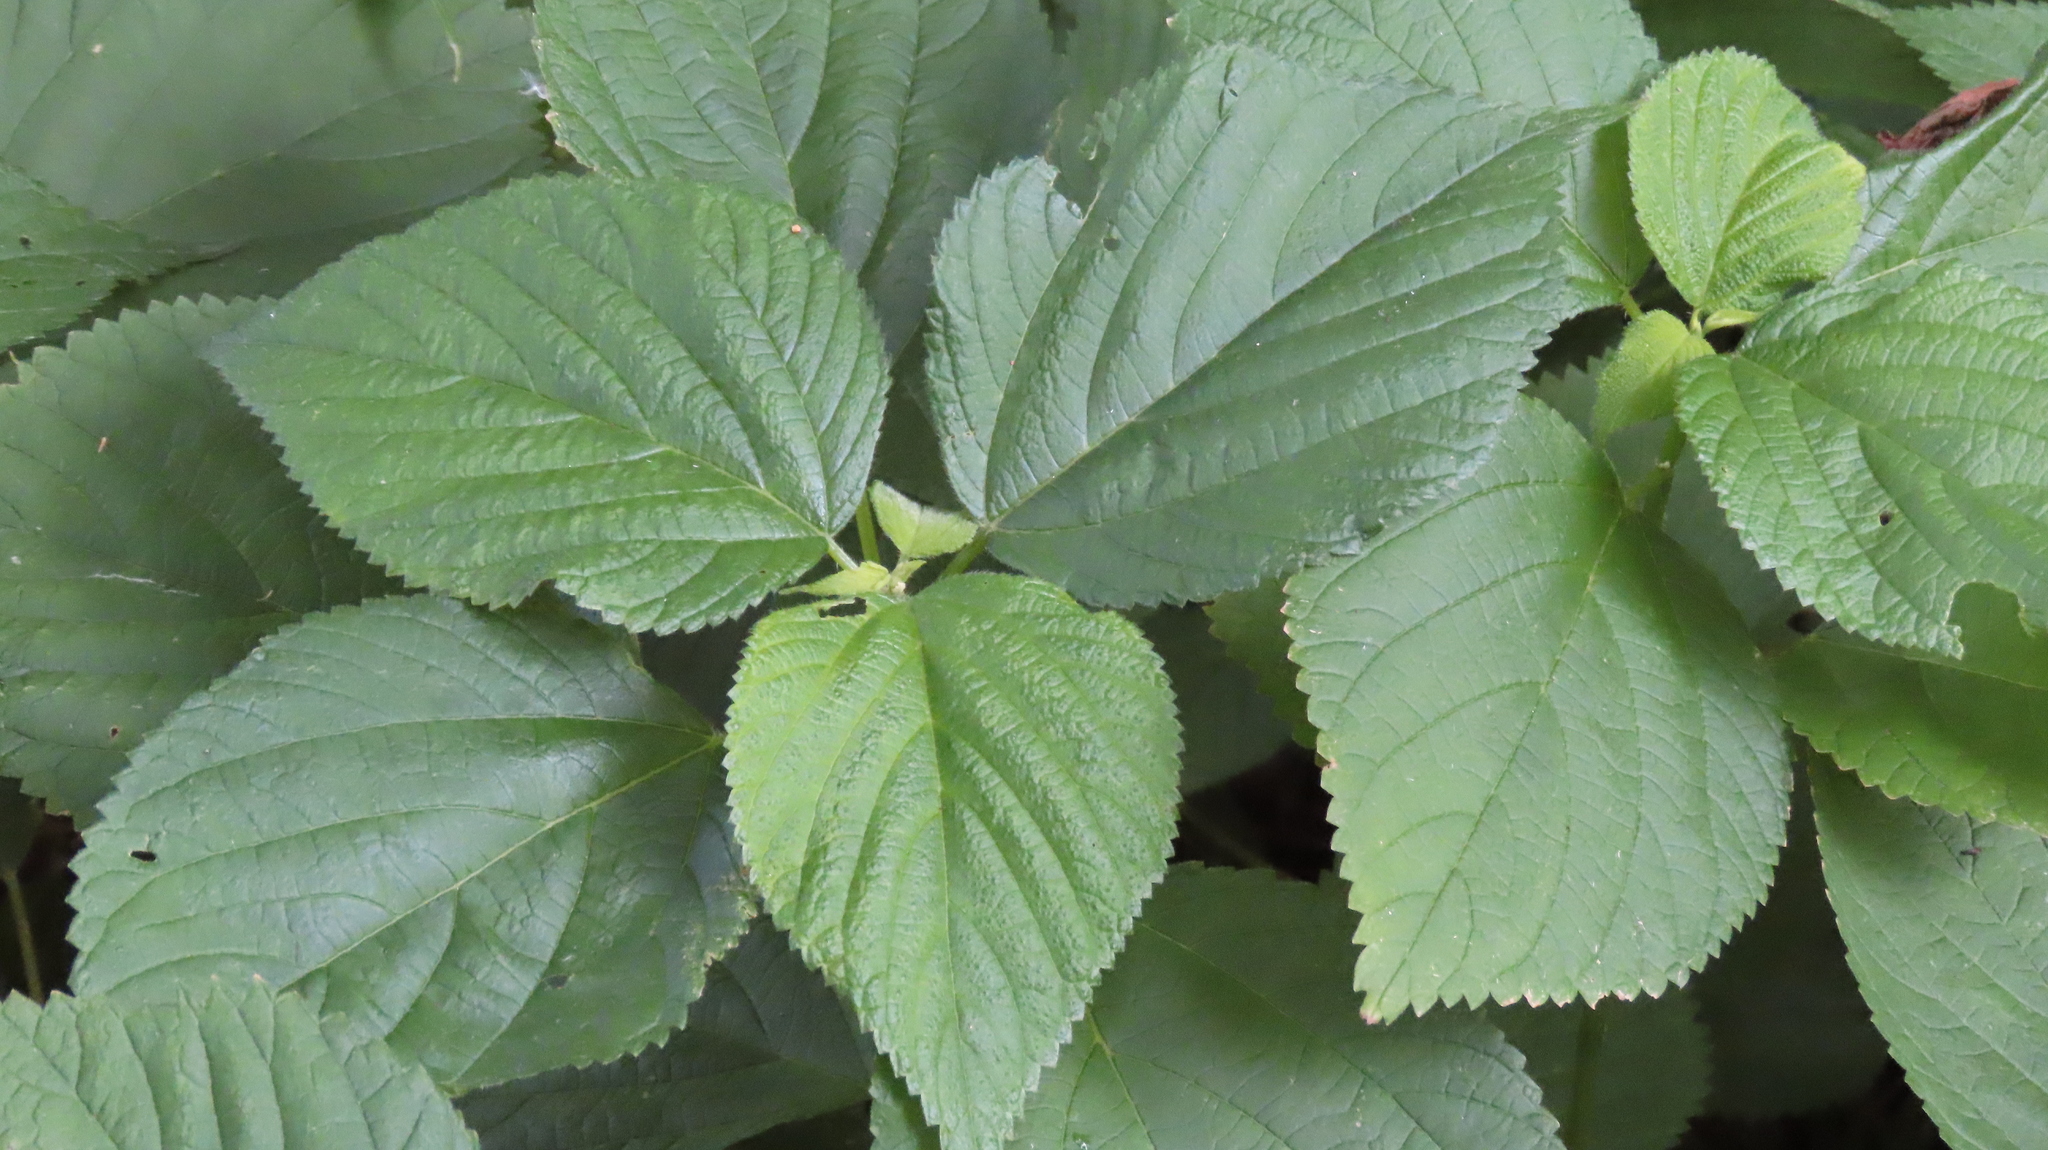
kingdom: Plantae
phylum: Tracheophyta
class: Magnoliopsida
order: Rosales
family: Urticaceae
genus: Laportea
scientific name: Laportea canadensis
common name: Canada nettle
